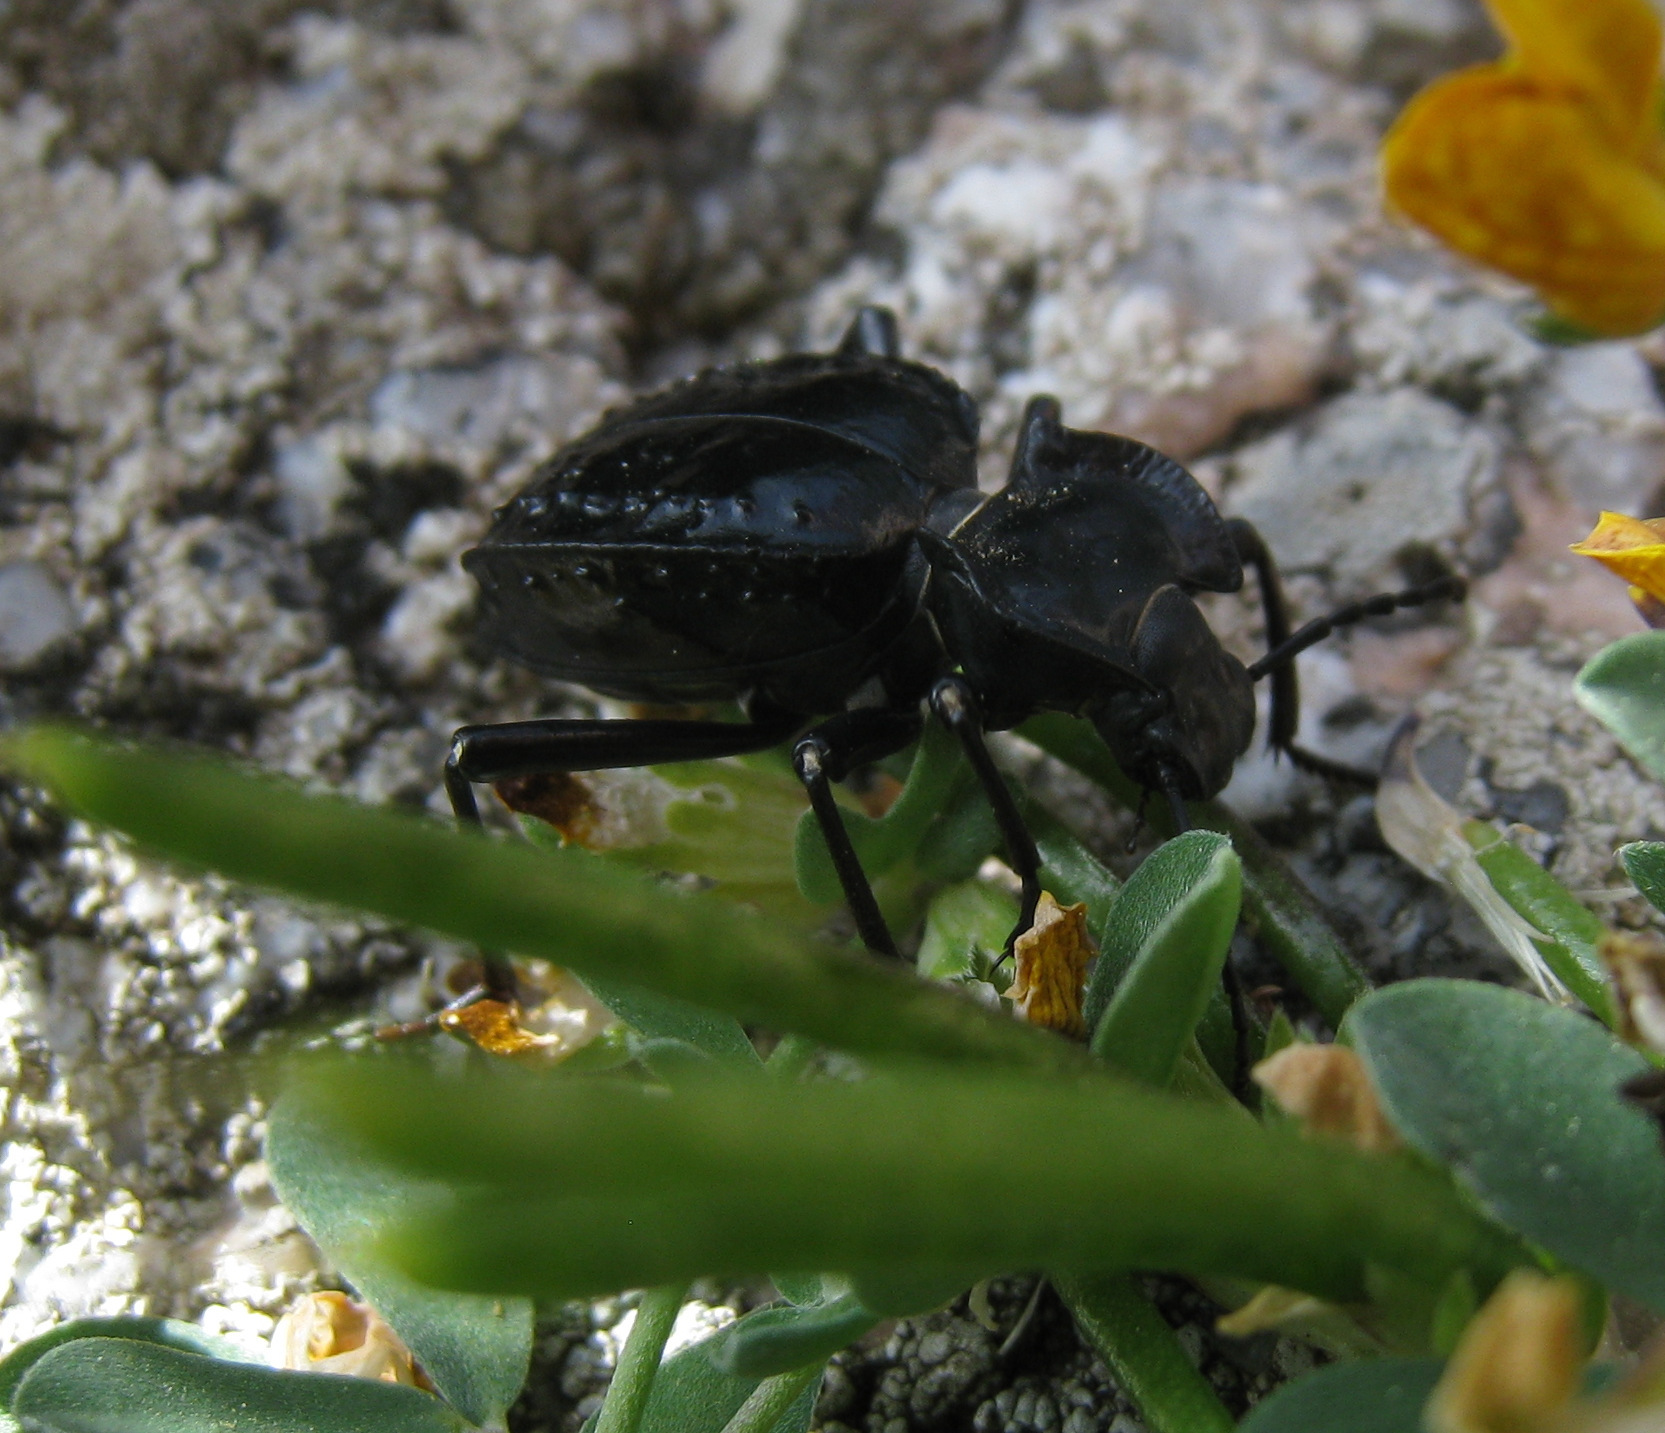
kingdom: Animalia
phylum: Arthropoda
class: Insecta
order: Coleoptera
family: Tenebrionidae
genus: Akis
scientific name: Akis bacarozzo
